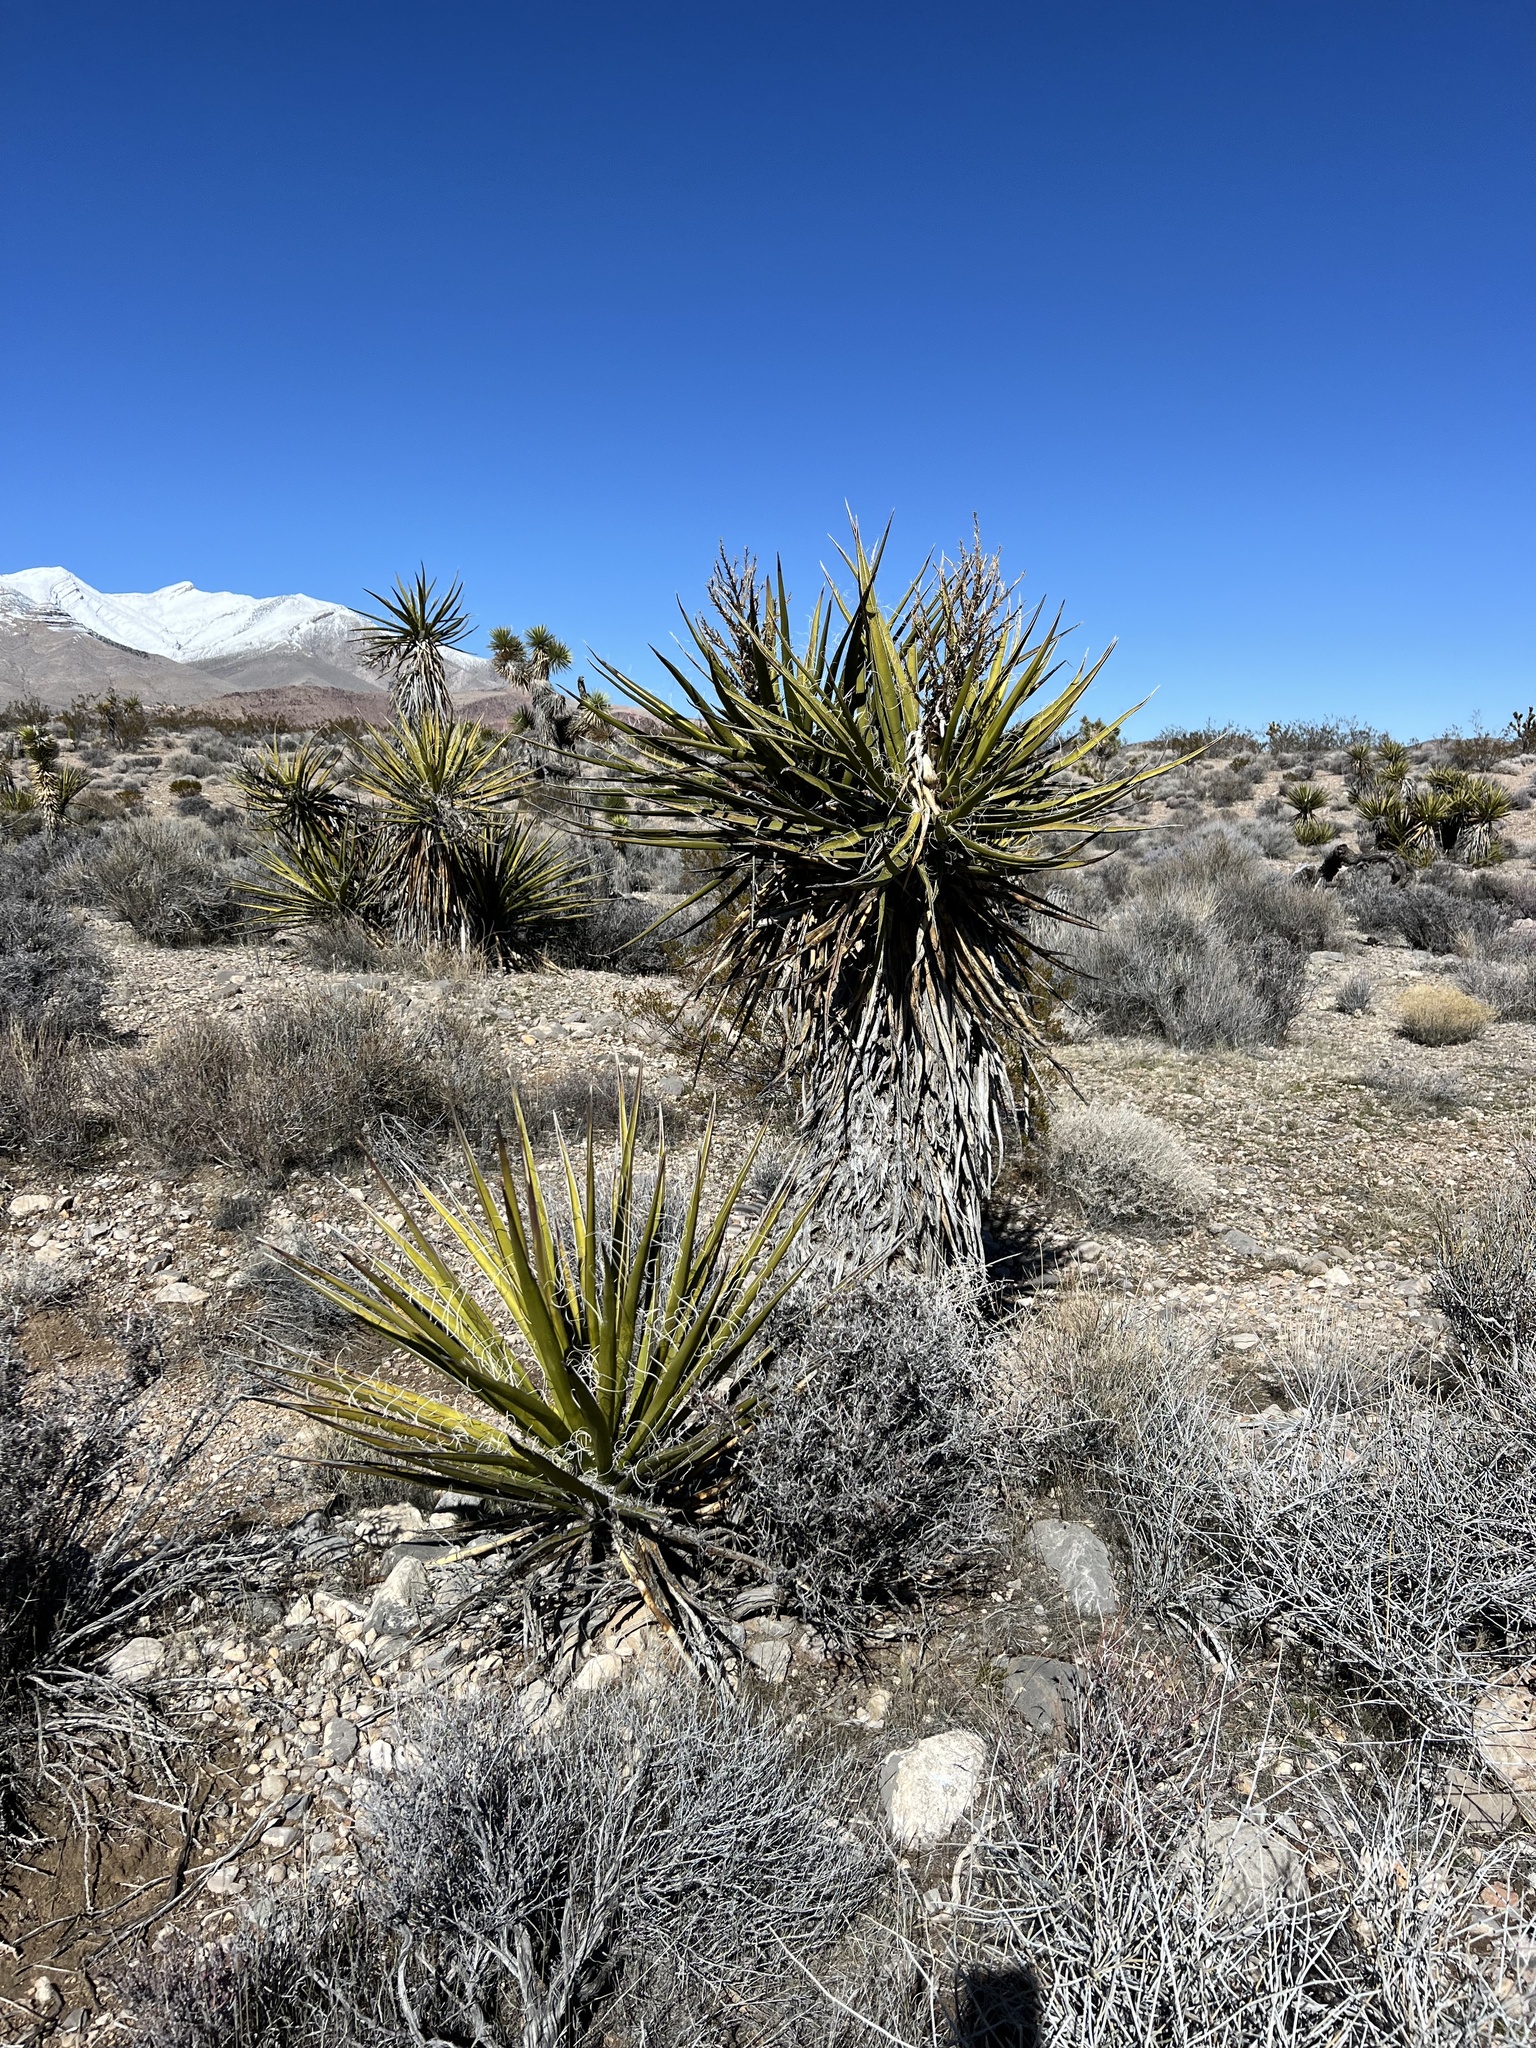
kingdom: Plantae
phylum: Tracheophyta
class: Liliopsida
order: Asparagales
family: Asparagaceae
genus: Yucca
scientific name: Yucca schidigera
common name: Mojave yucca
